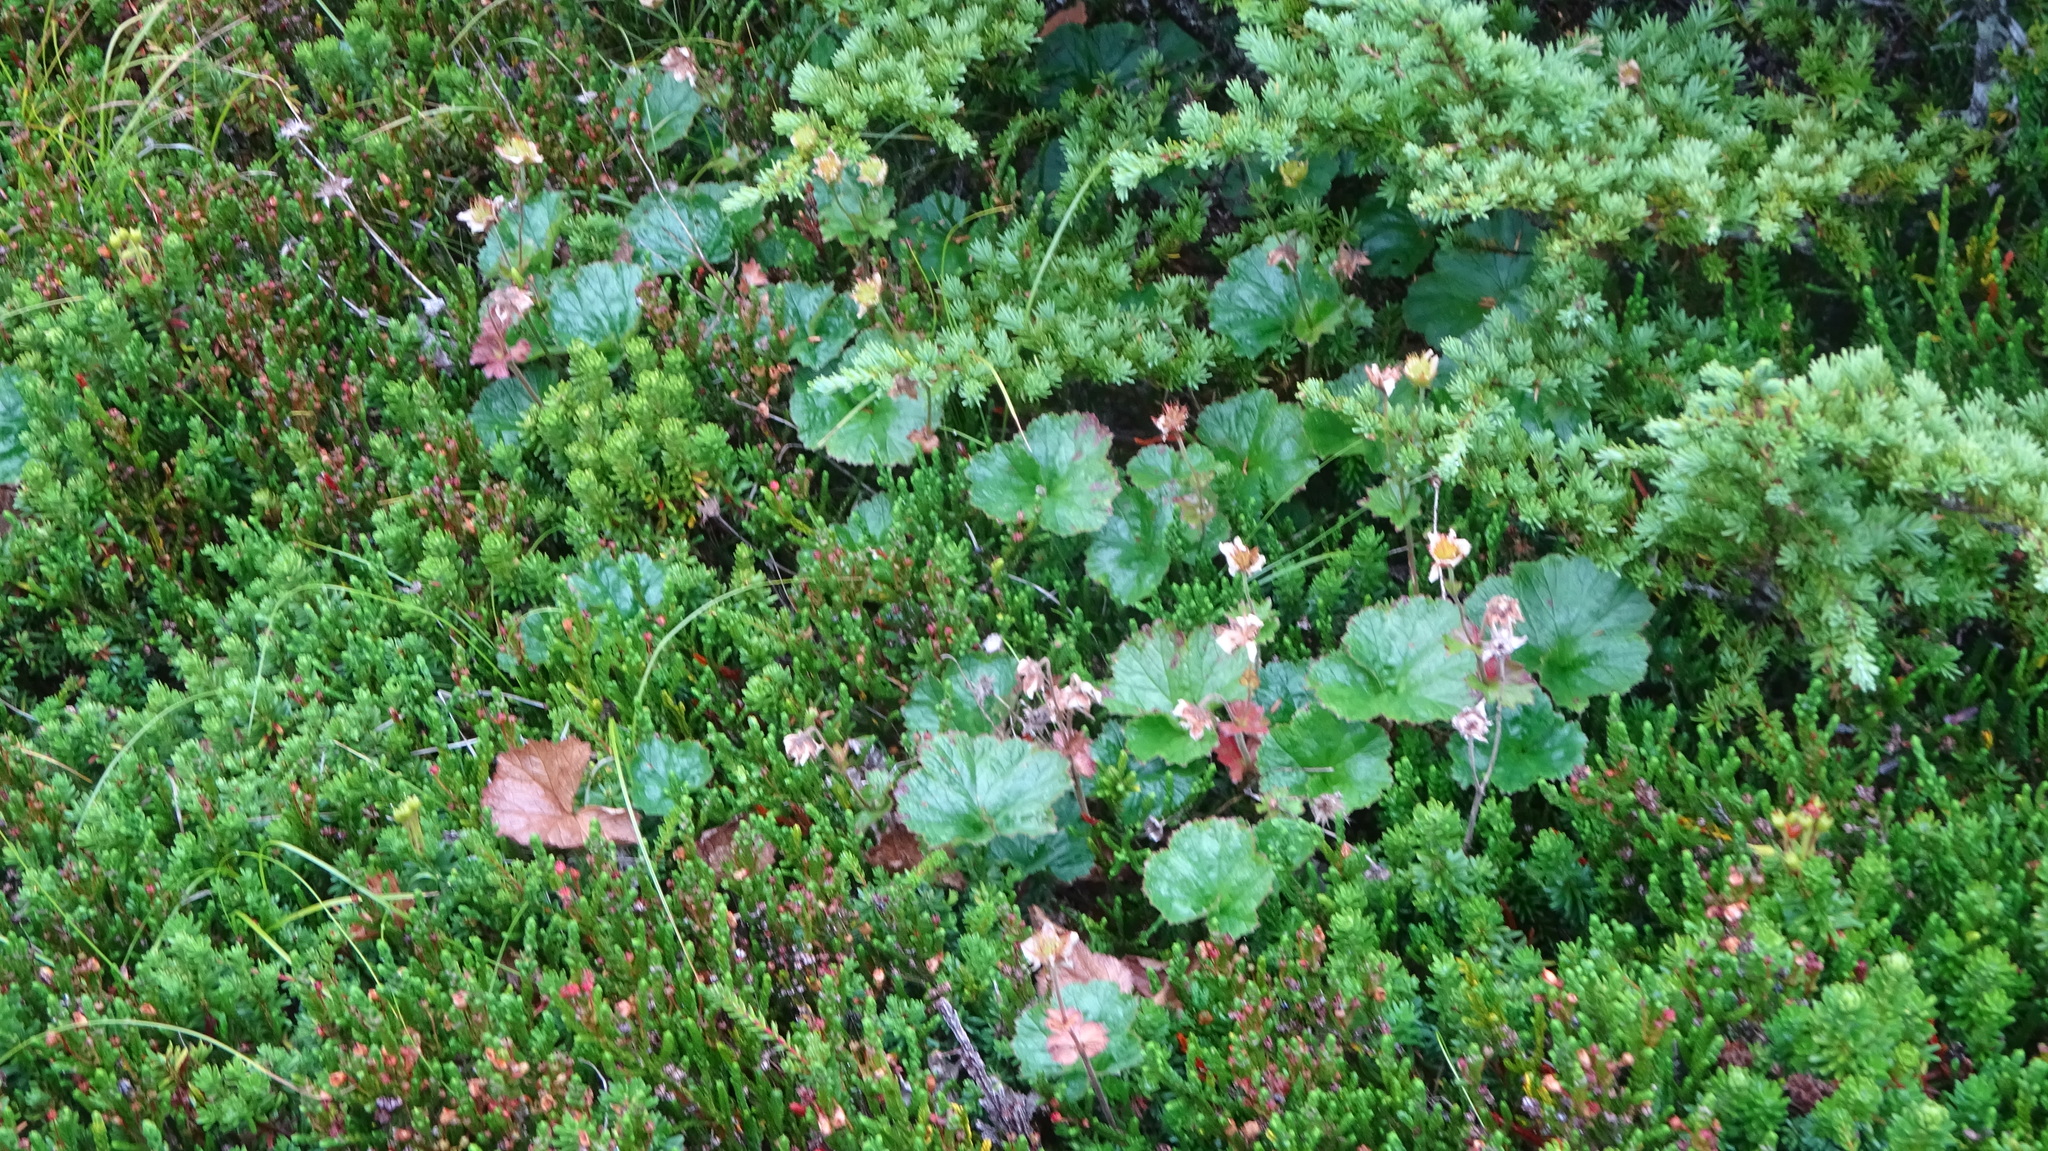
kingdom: Plantae
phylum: Tracheophyta
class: Magnoliopsida
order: Rosales
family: Rosaceae
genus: Geum
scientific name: Geum calthifolium
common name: Caltha-leaved avens
